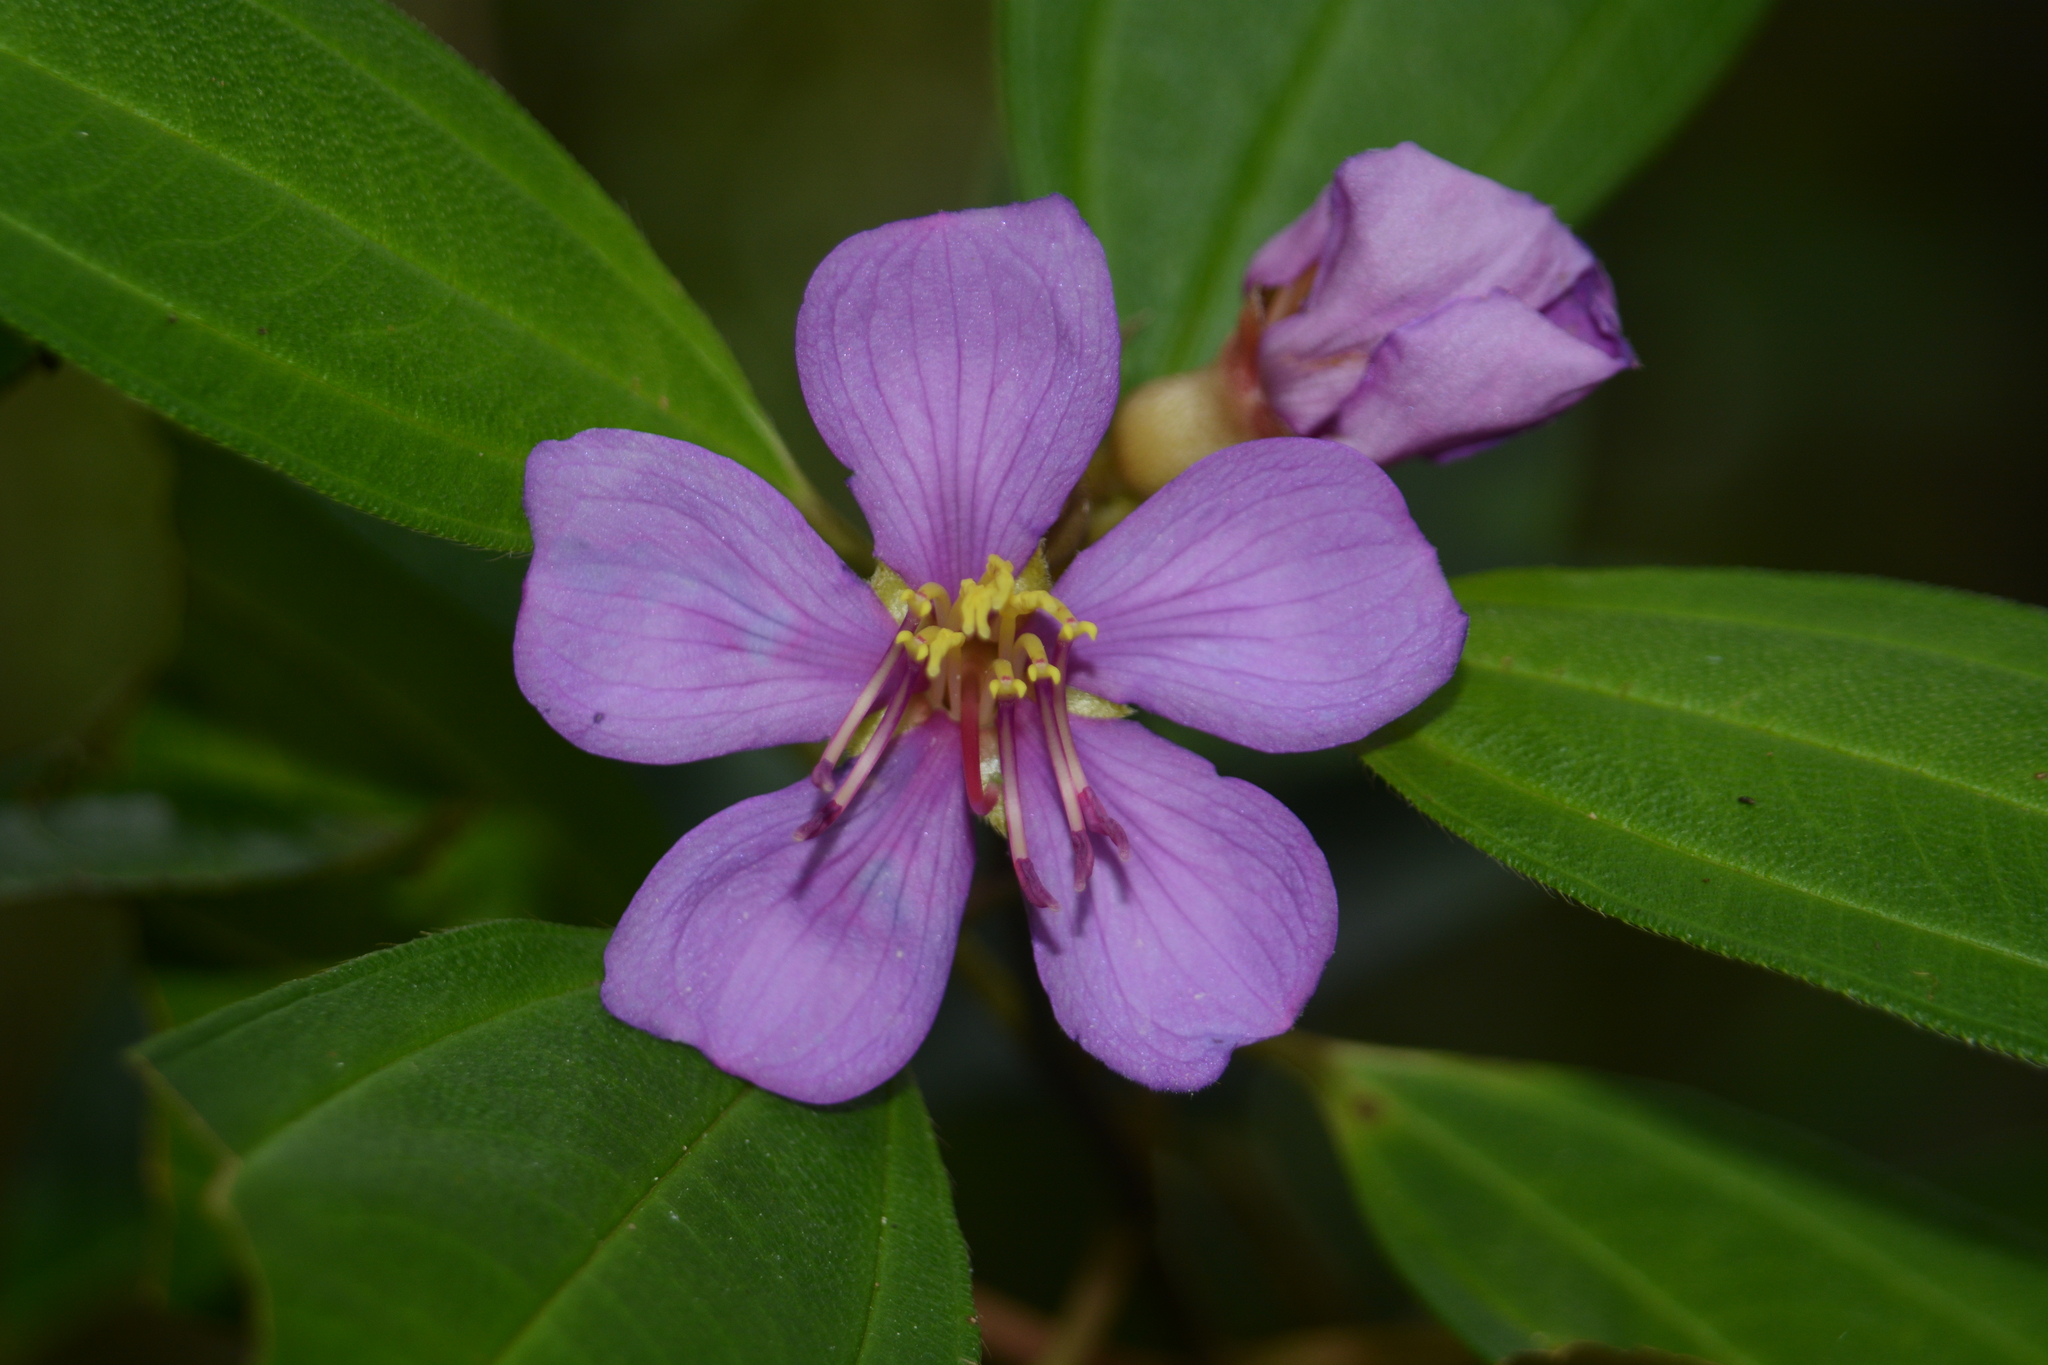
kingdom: Plantae
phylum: Tracheophyta
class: Magnoliopsida
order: Myrtales
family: Melastomataceae
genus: Melastoma
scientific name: Melastoma malabathricum
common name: Indian-rhododendron
